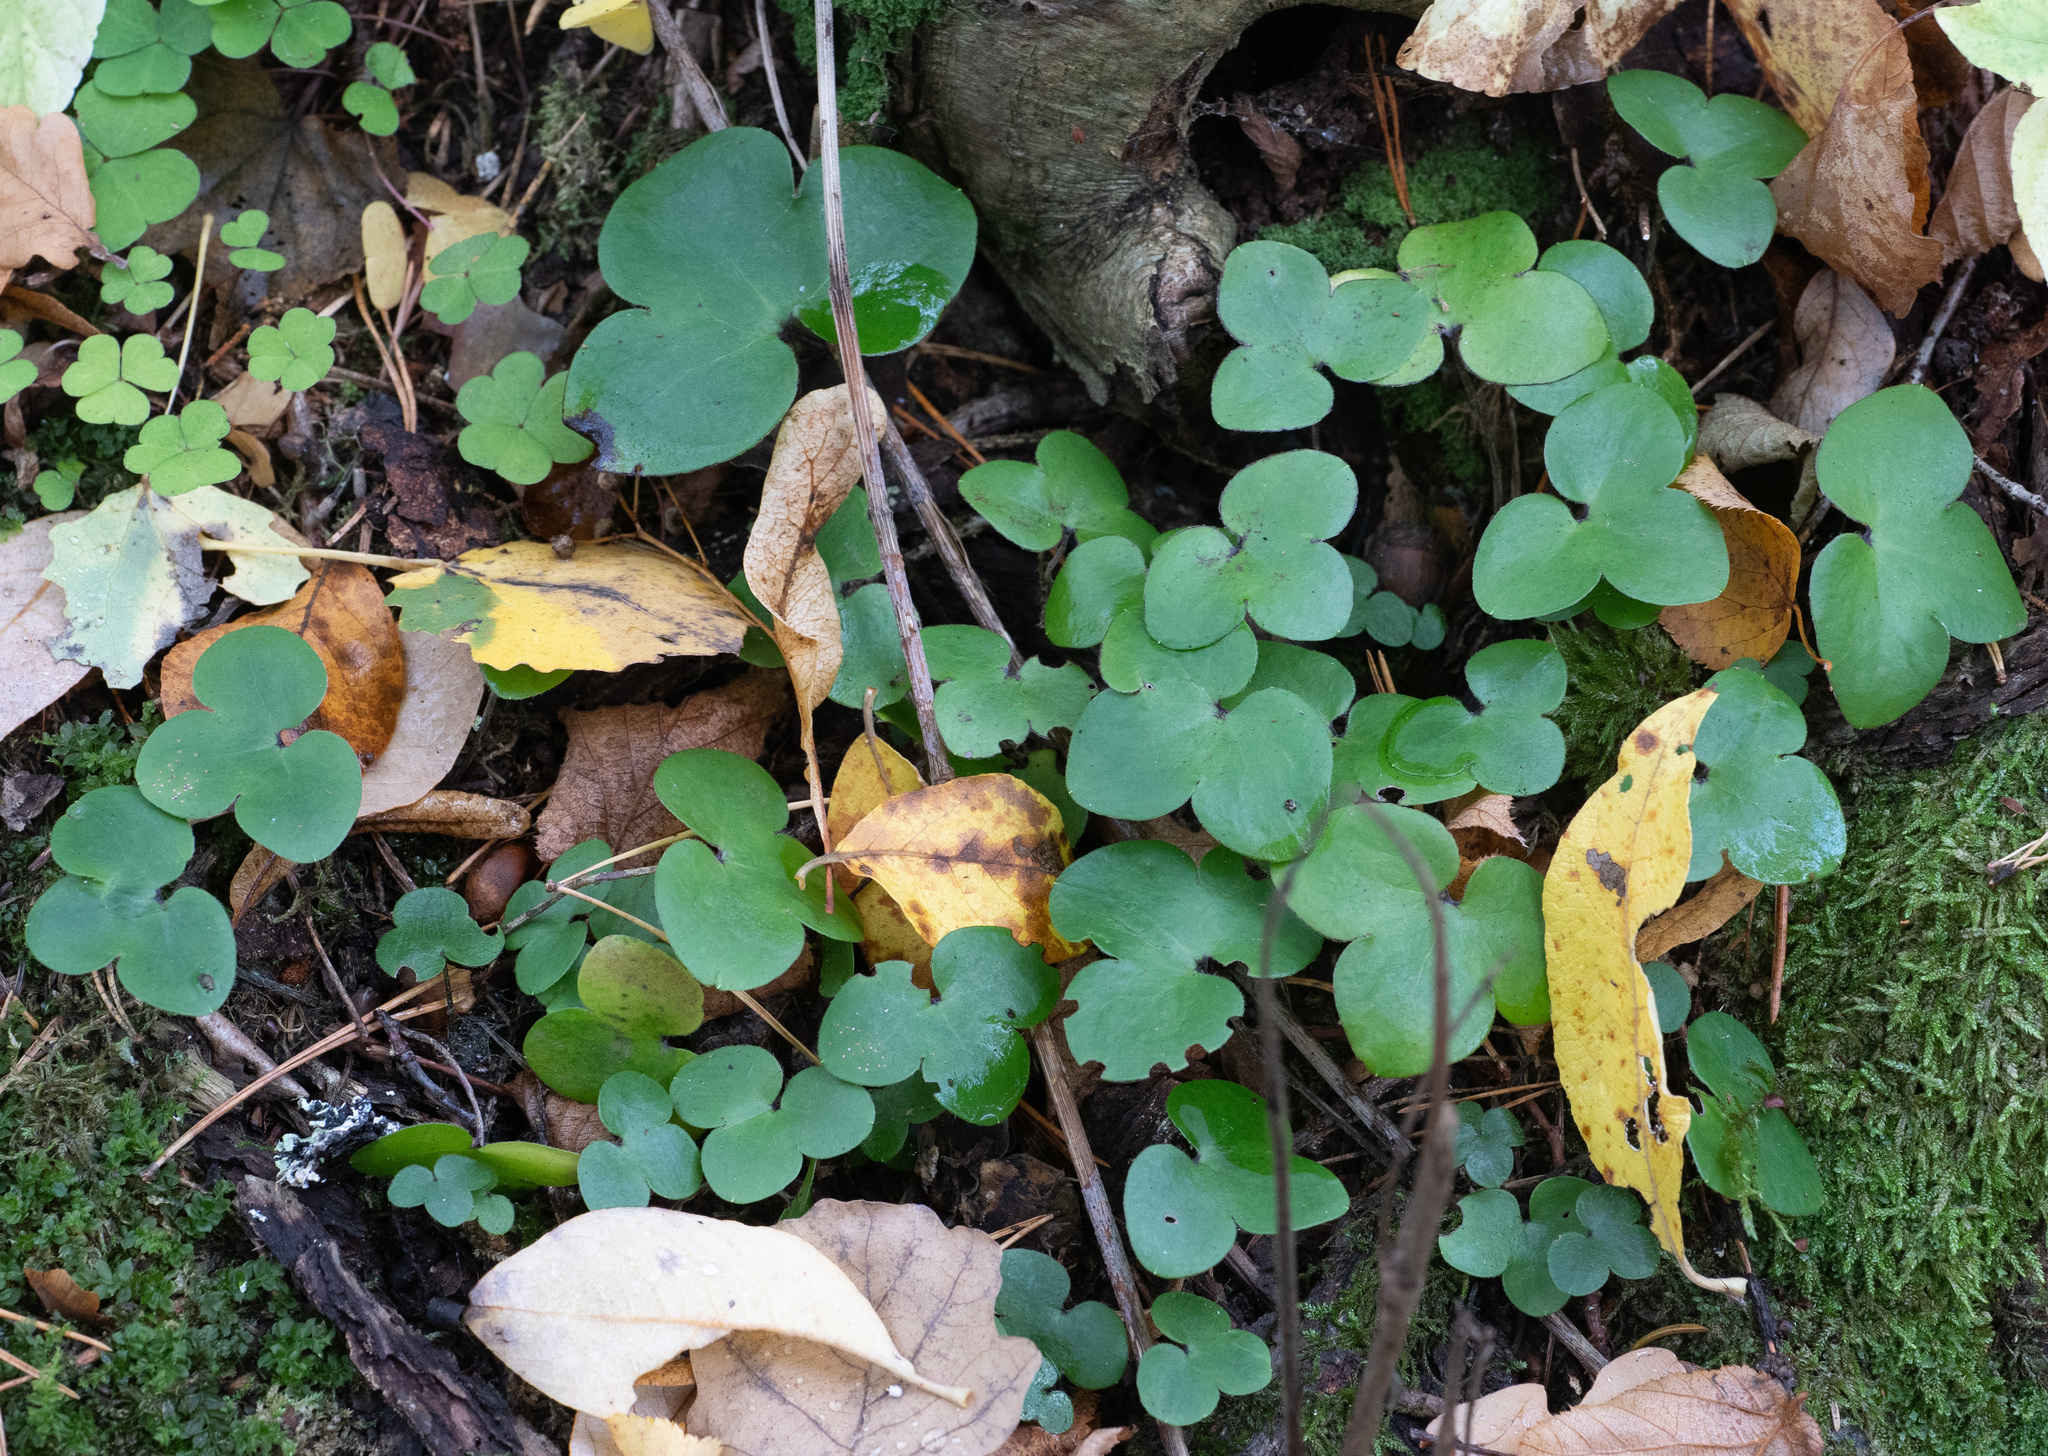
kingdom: Plantae
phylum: Tracheophyta
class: Magnoliopsida
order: Ranunculales
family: Ranunculaceae
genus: Hepatica
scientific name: Hepatica nobilis
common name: Liverleaf
